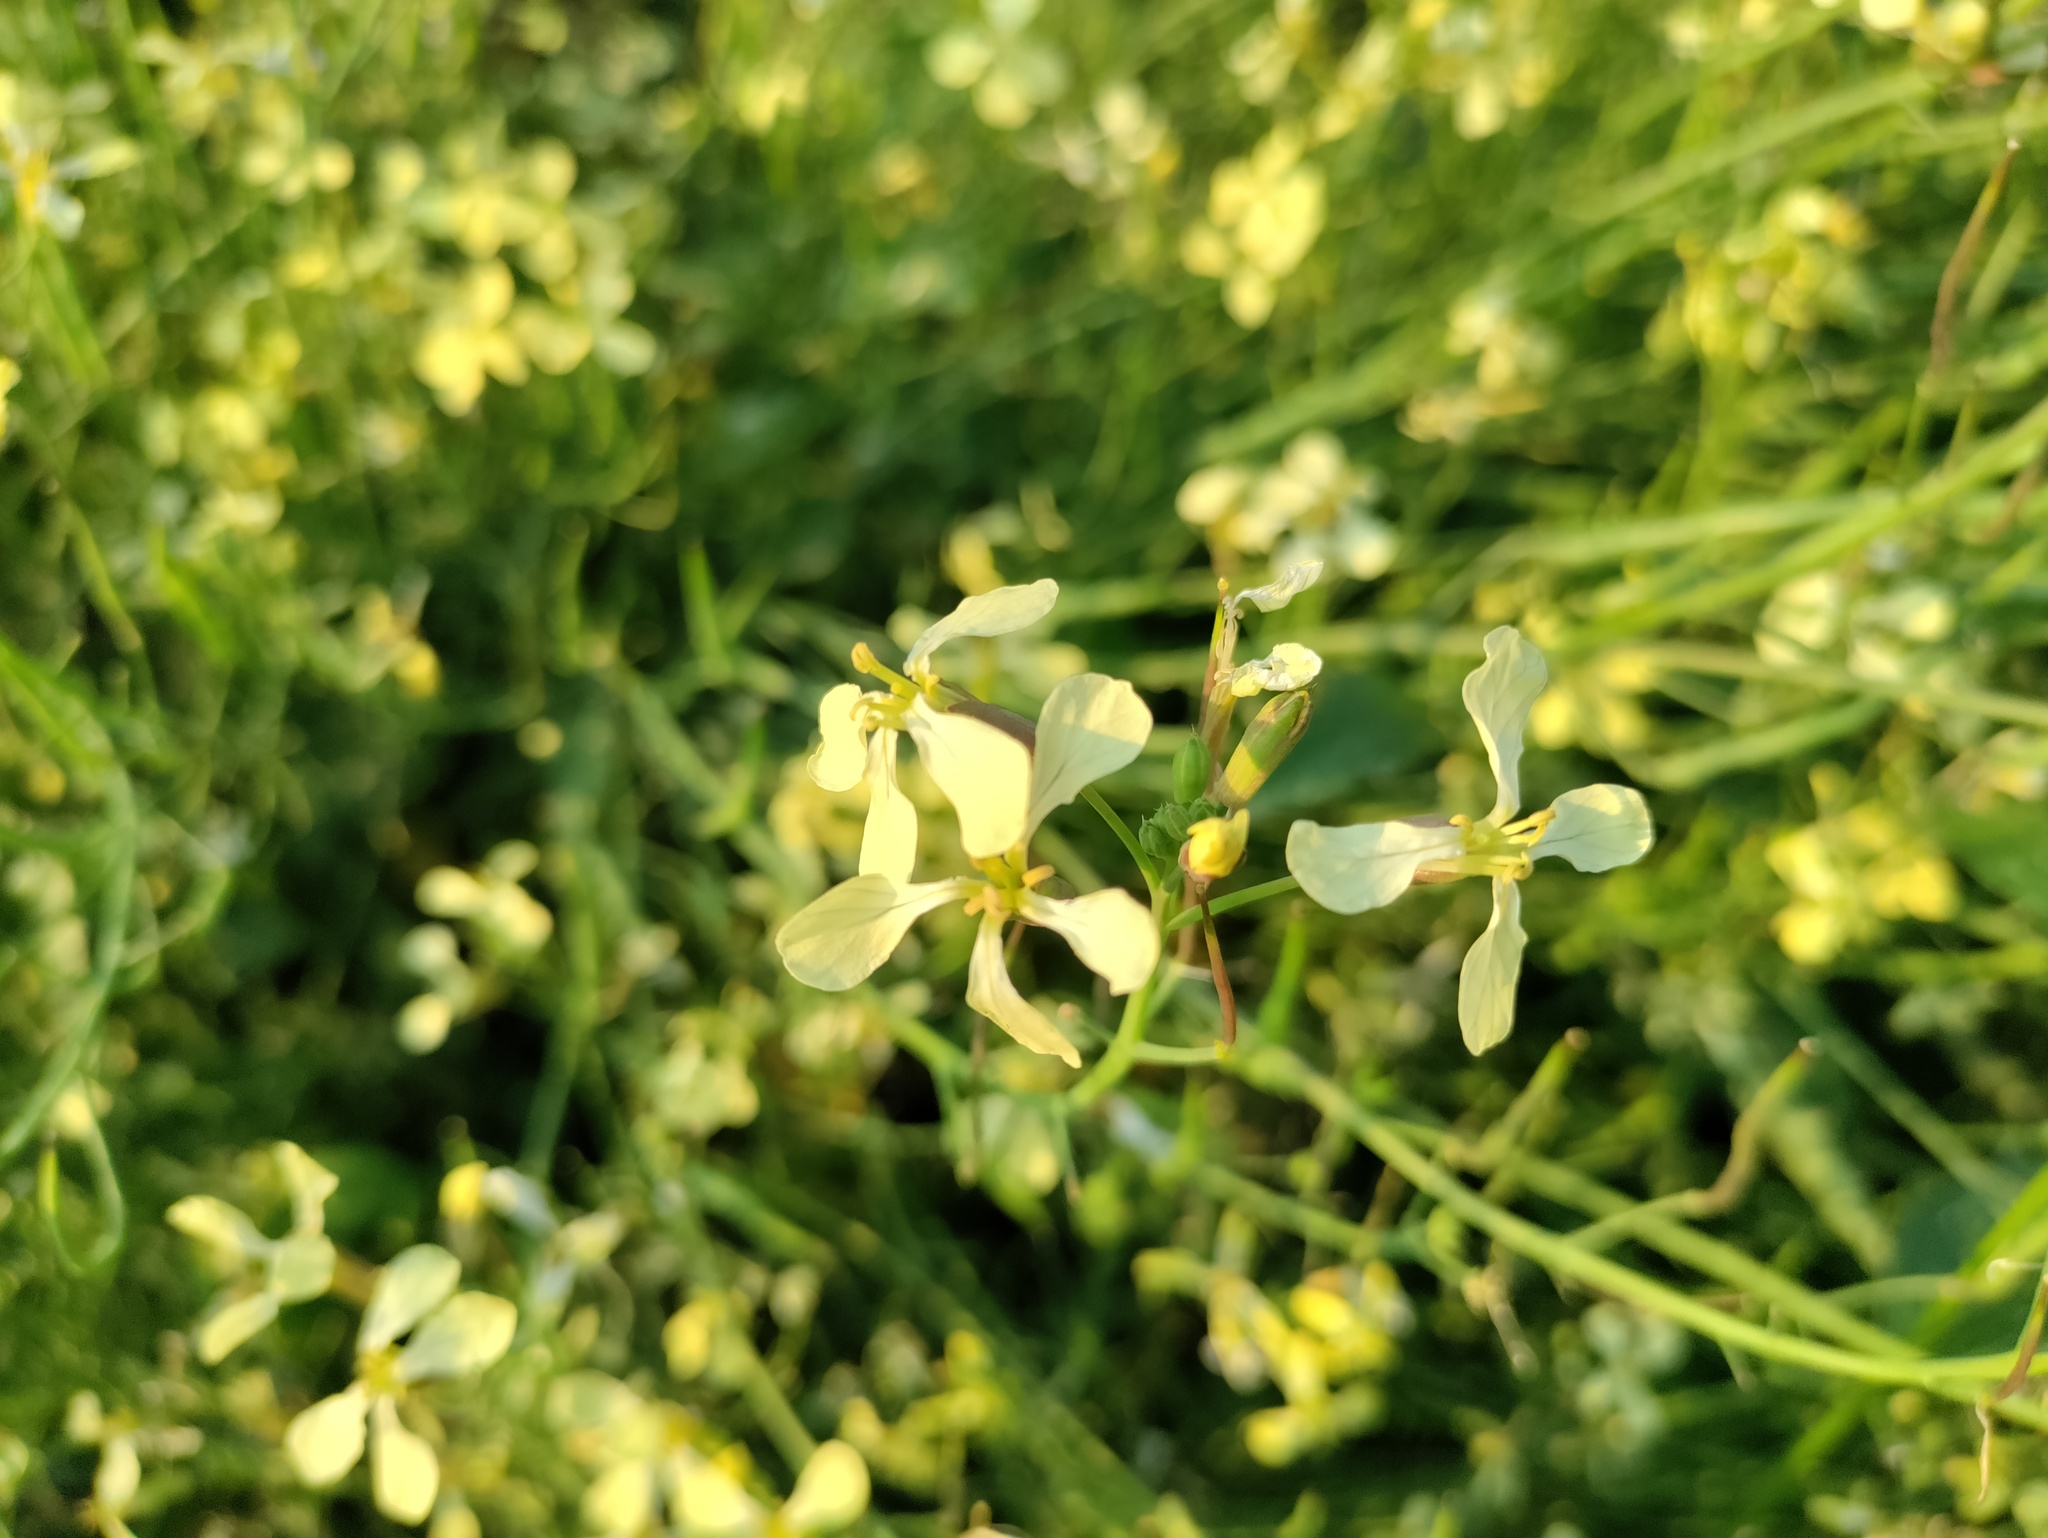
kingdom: Plantae
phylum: Tracheophyta
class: Magnoliopsida
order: Brassicales
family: Brassicaceae
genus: Raphanus
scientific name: Raphanus raphanistrum
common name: Wild radish
